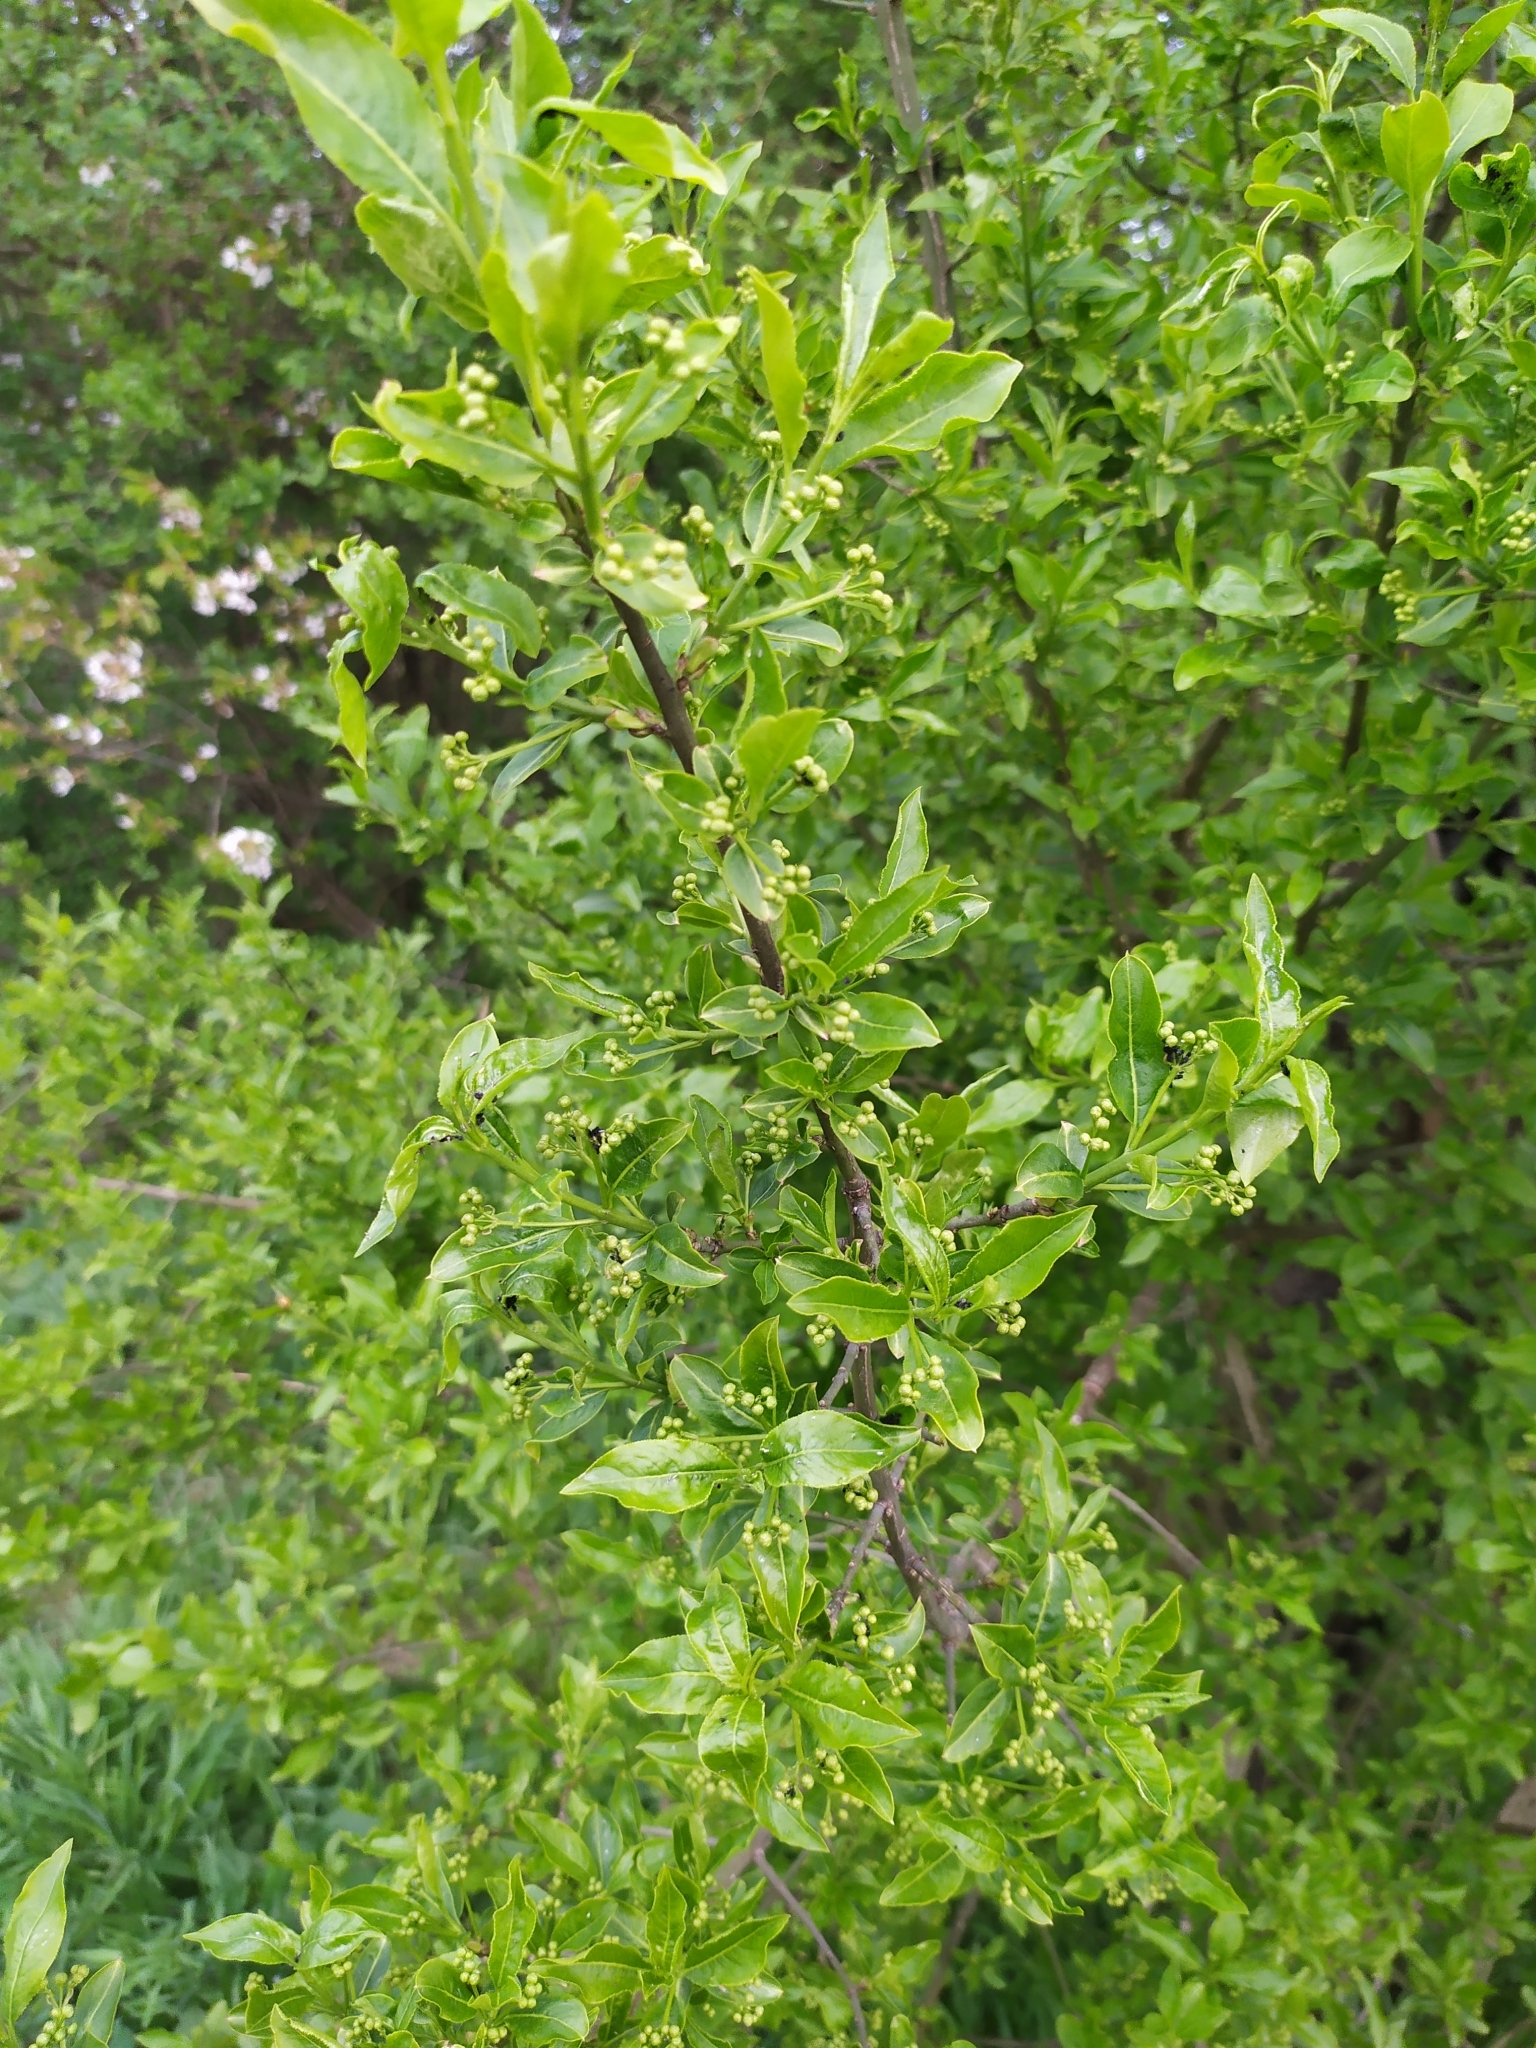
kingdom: Plantae
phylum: Tracheophyta
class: Magnoliopsida
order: Celastrales
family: Celastraceae
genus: Euonymus
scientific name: Euonymus europaeus
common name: Spindle
